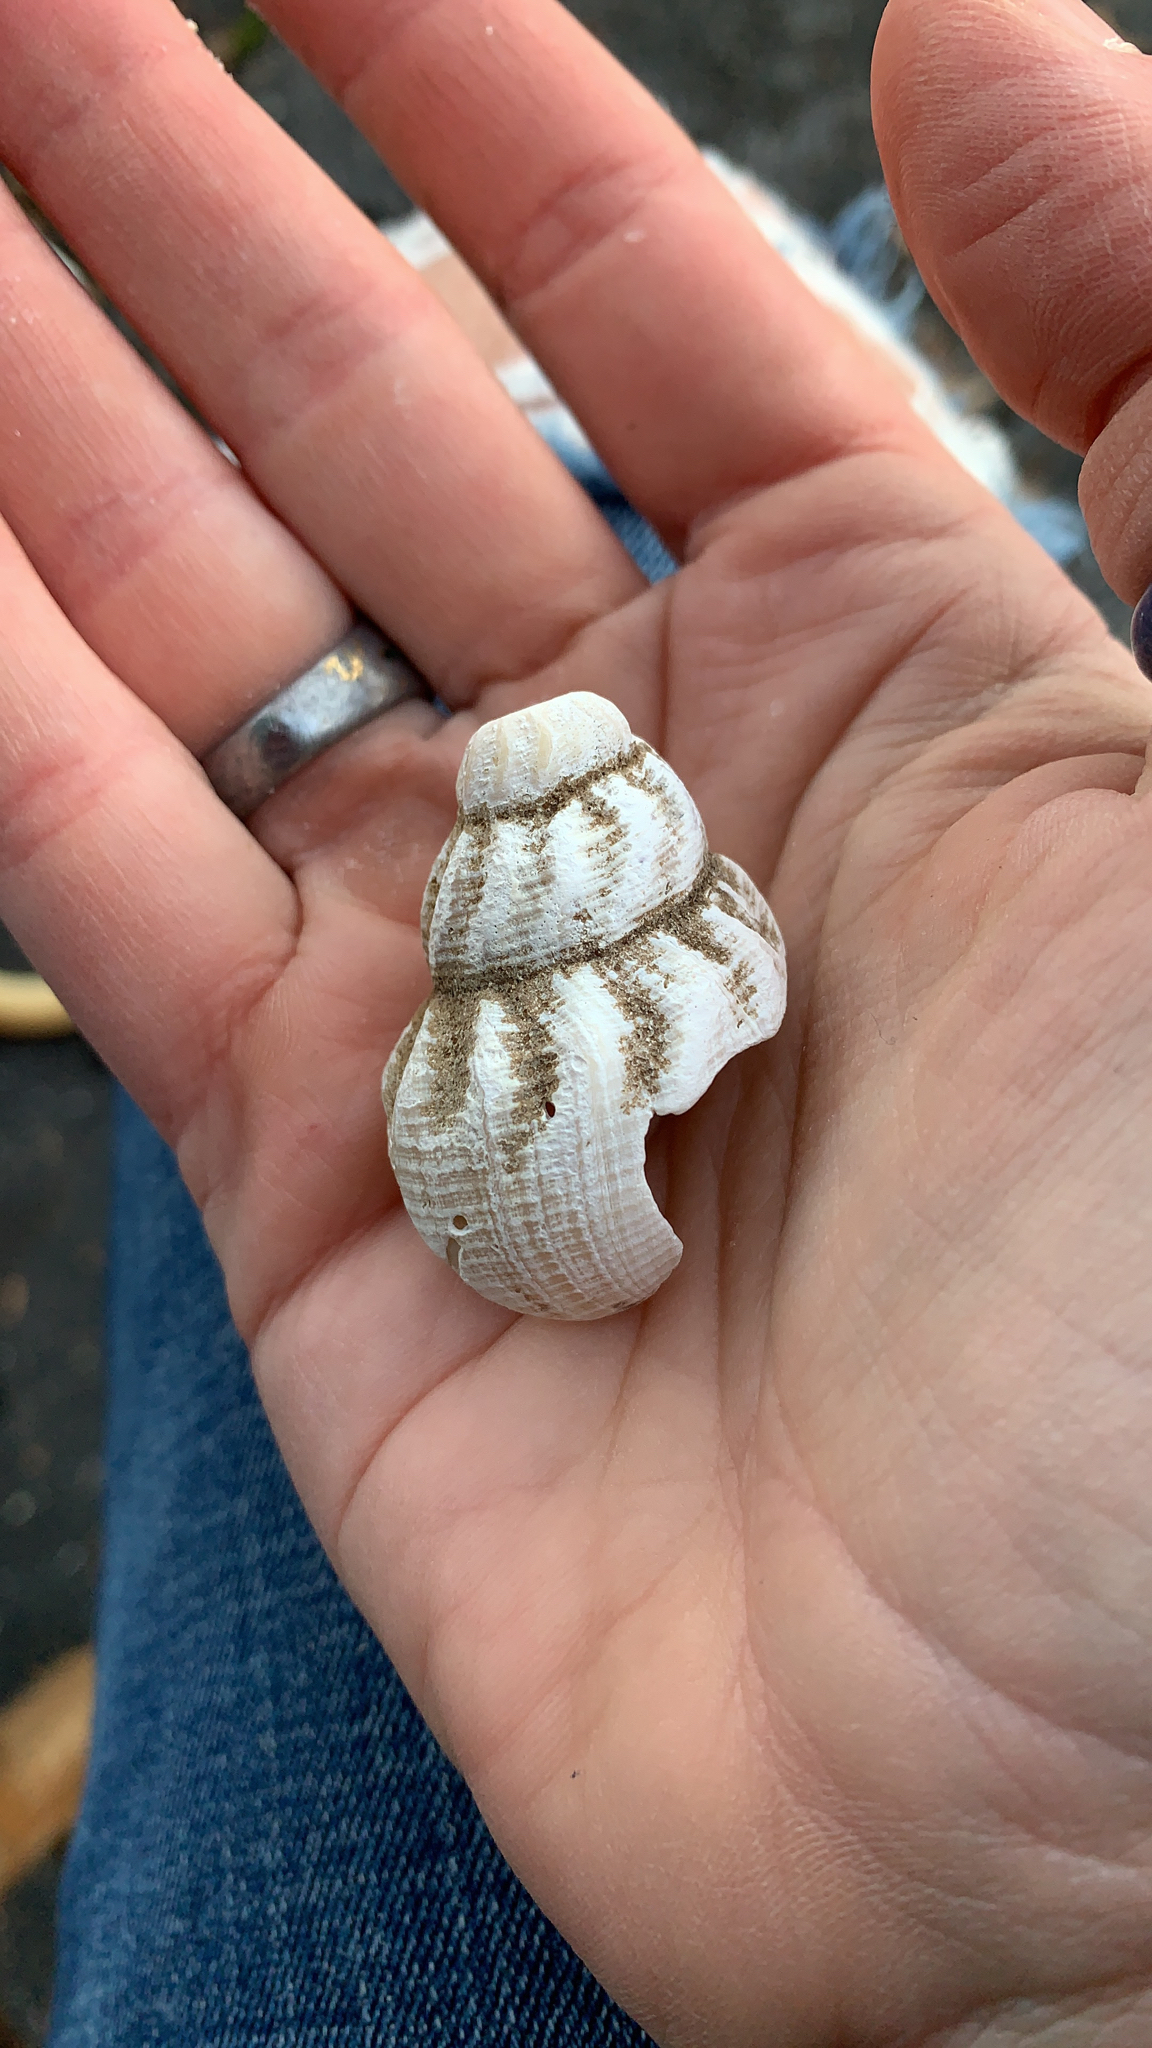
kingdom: Animalia
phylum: Mollusca
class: Gastropoda
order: Neogastropoda
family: Buccinidae
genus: Buccinum
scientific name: Buccinum undatum
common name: Common whelk
